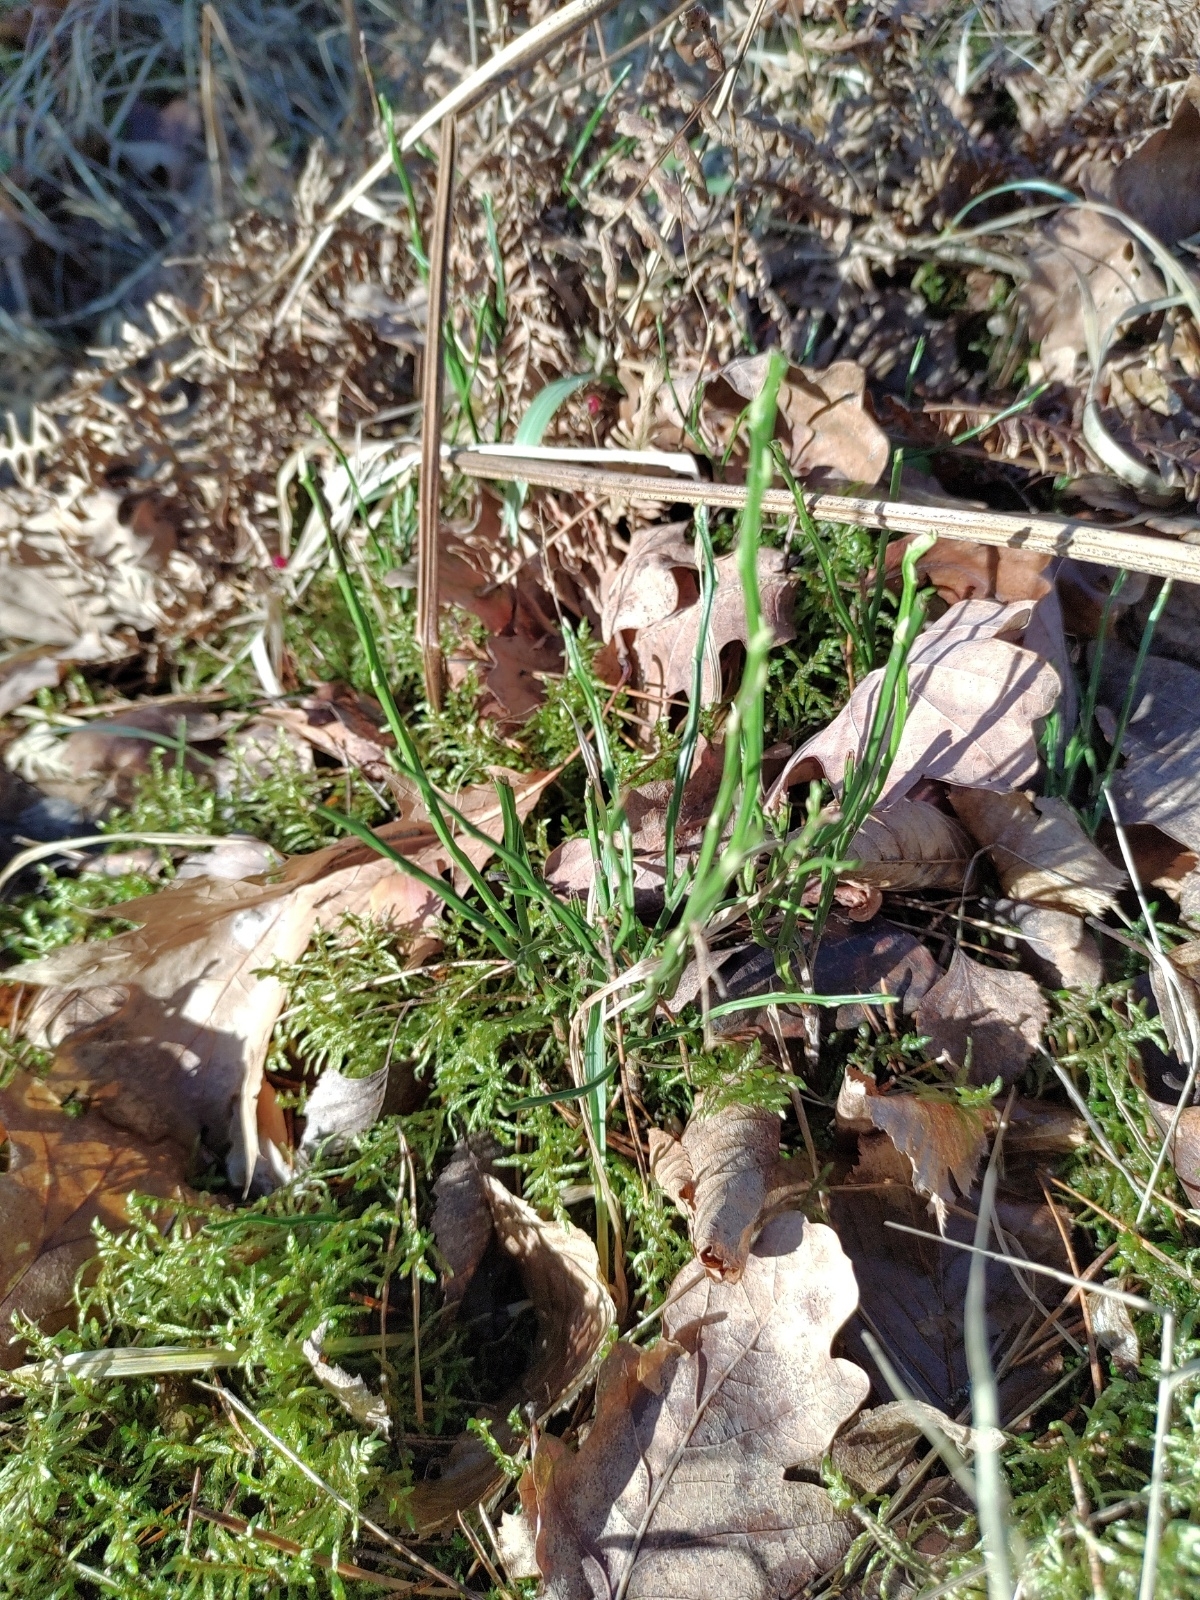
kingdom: Plantae
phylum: Tracheophyta
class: Magnoliopsida
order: Ericales
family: Ericaceae
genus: Vaccinium
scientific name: Vaccinium myrtillus
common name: Bilberry
